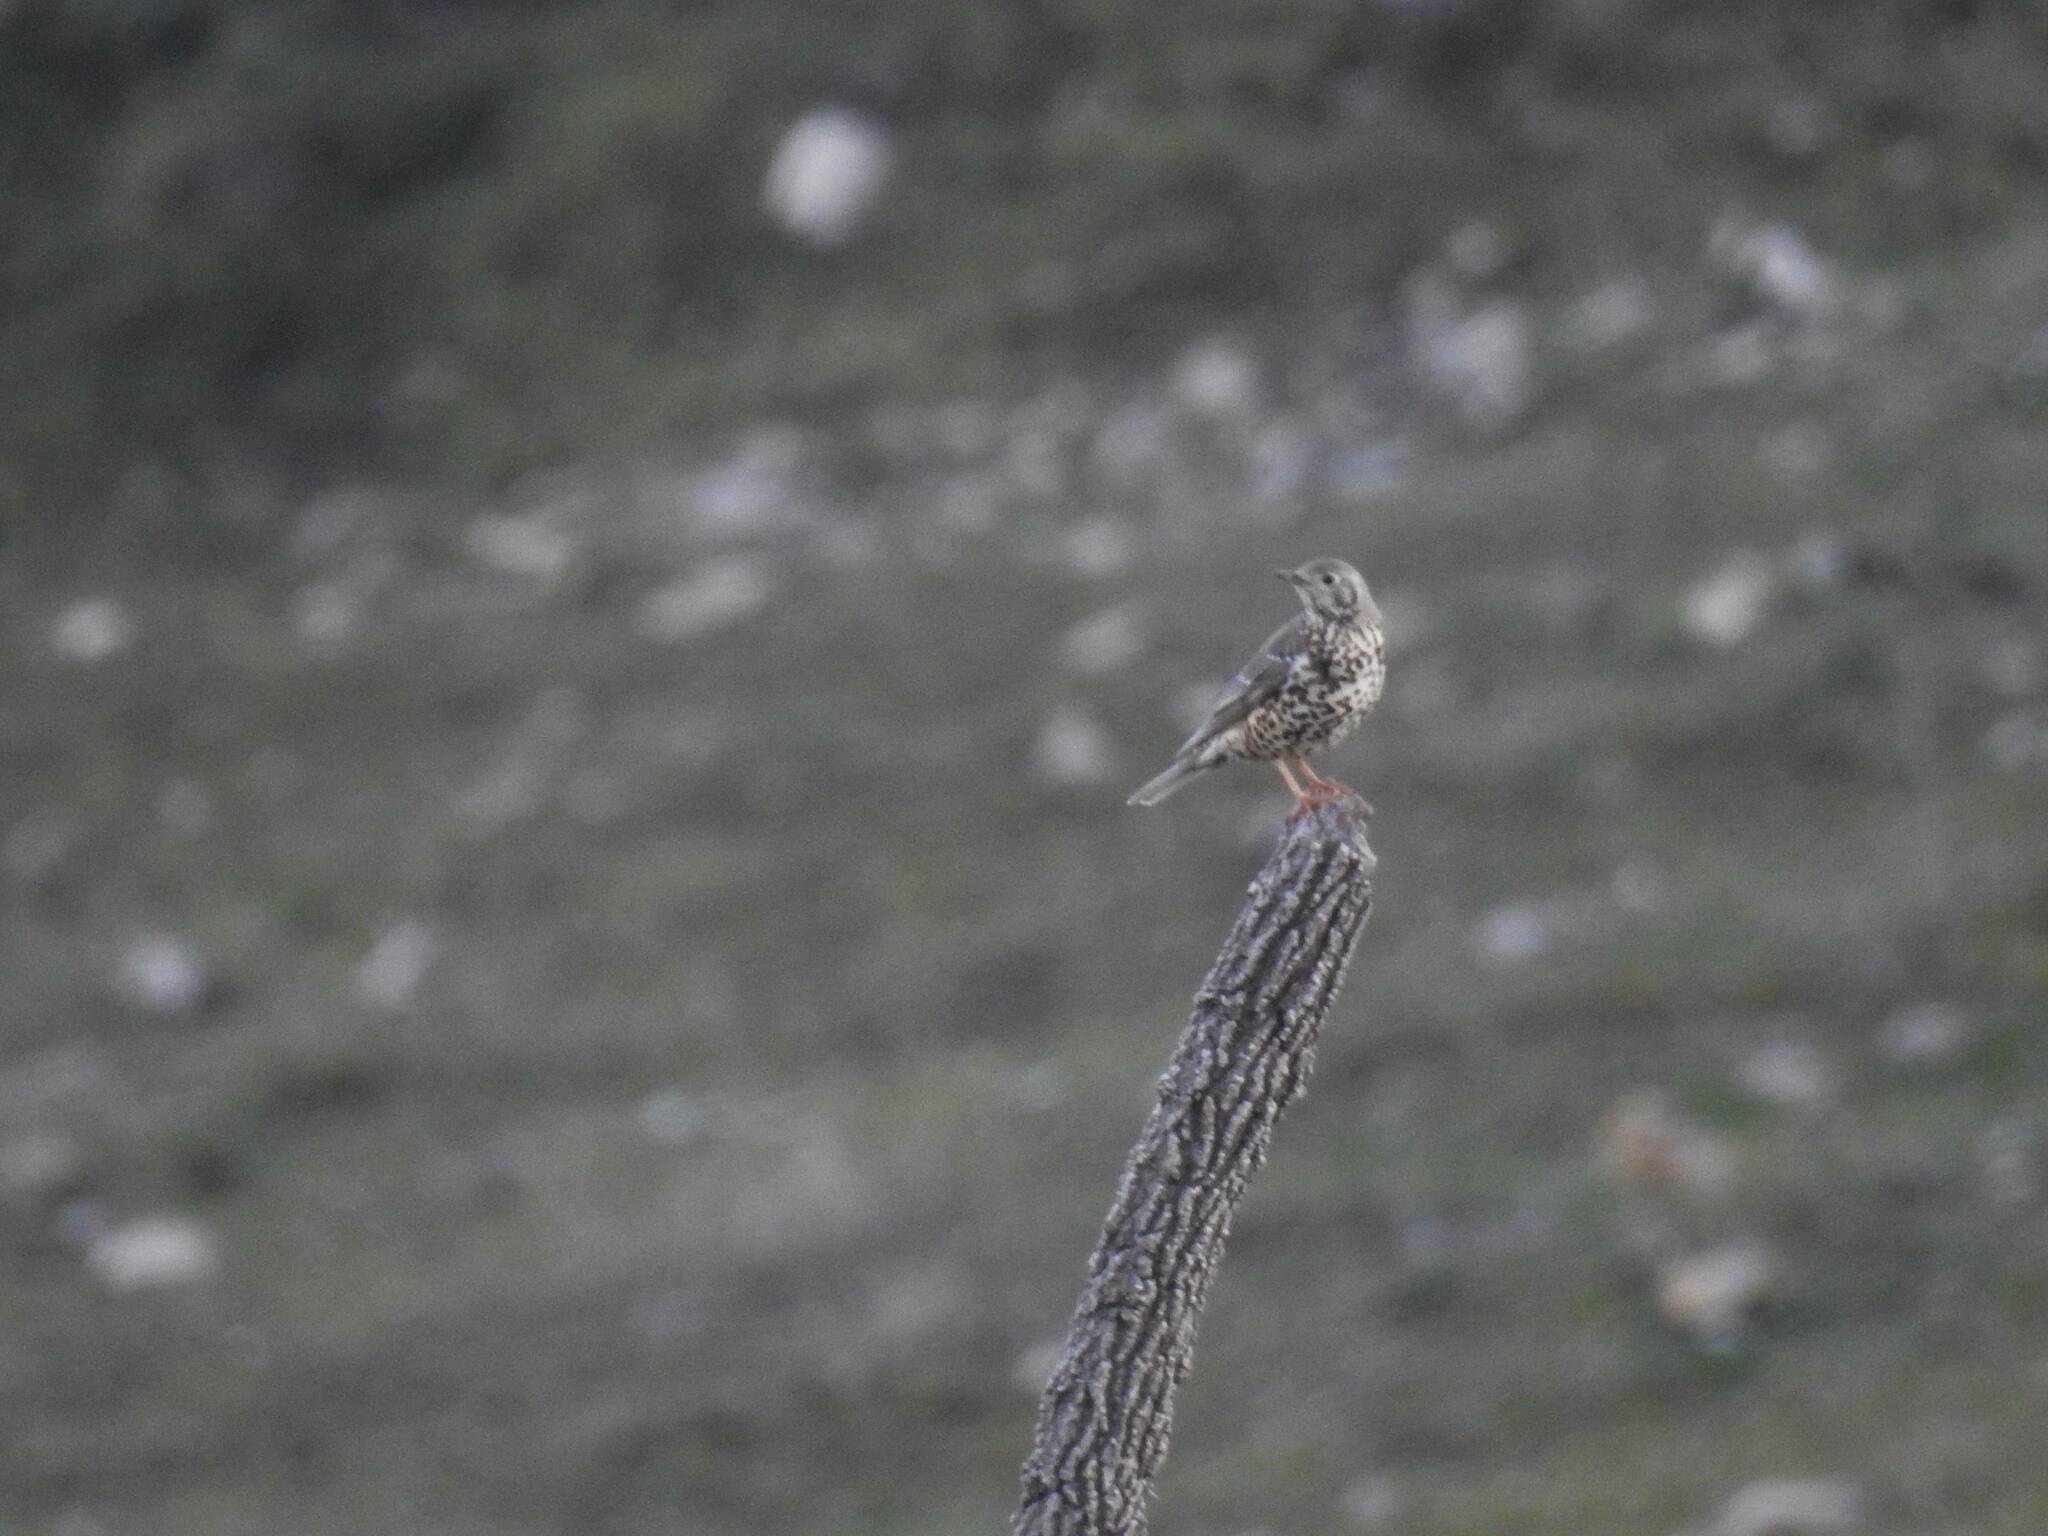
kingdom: Animalia
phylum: Chordata
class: Aves
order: Passeriformes
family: Turdidae
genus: Turdus
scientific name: Turdus viscivorus
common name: Mistle thrush
